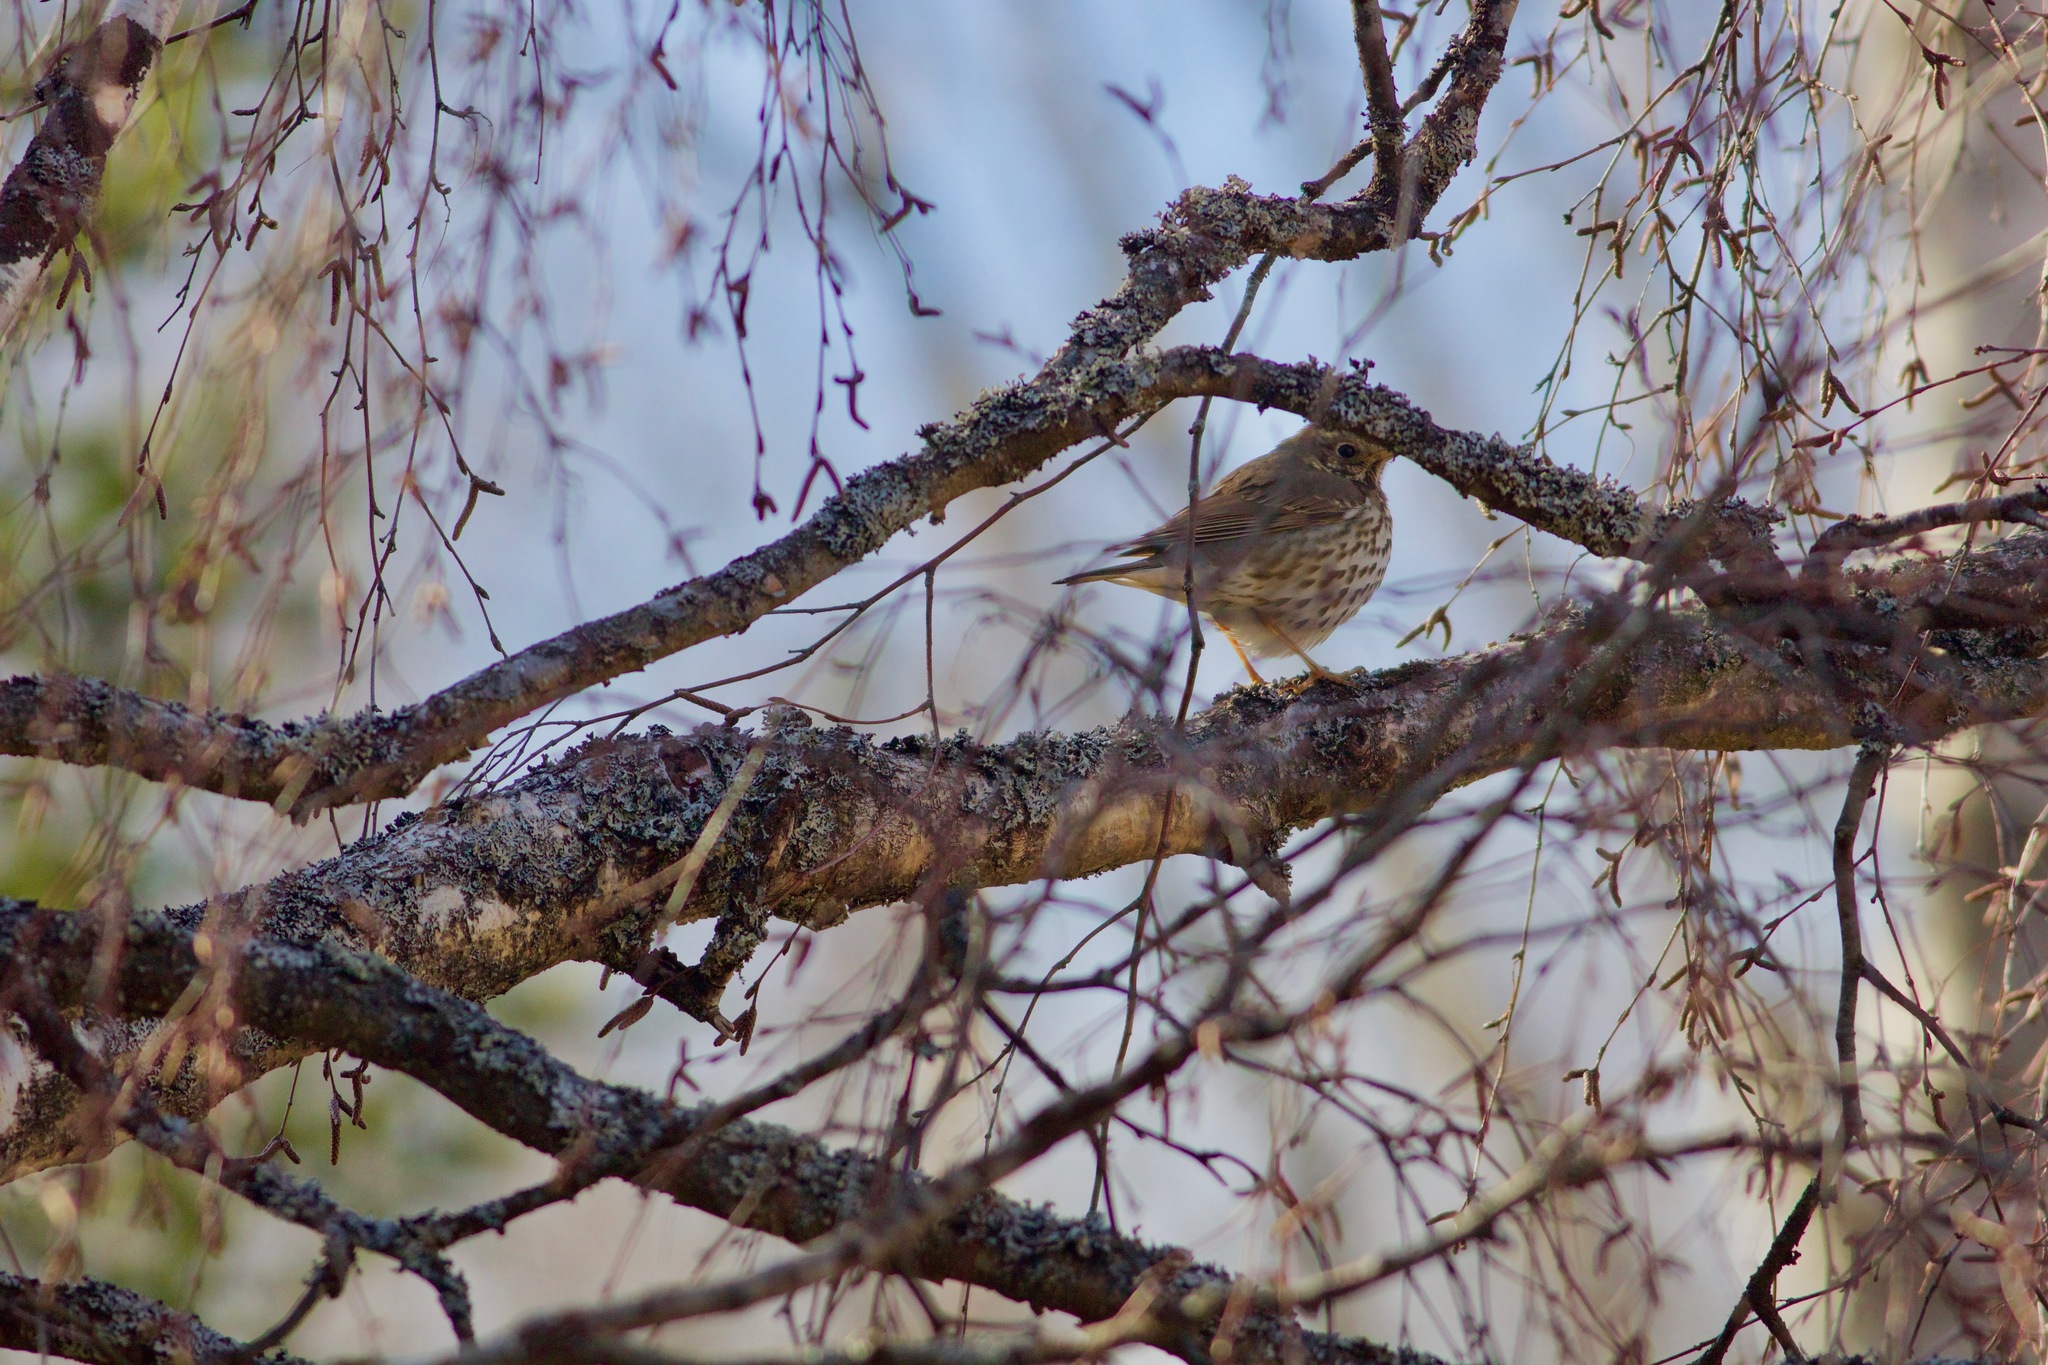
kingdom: Animalia
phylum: Chordata
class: Aves
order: Passeriformes
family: Turdidae
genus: Turdus
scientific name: Turdus philomelos
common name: Song thrush
